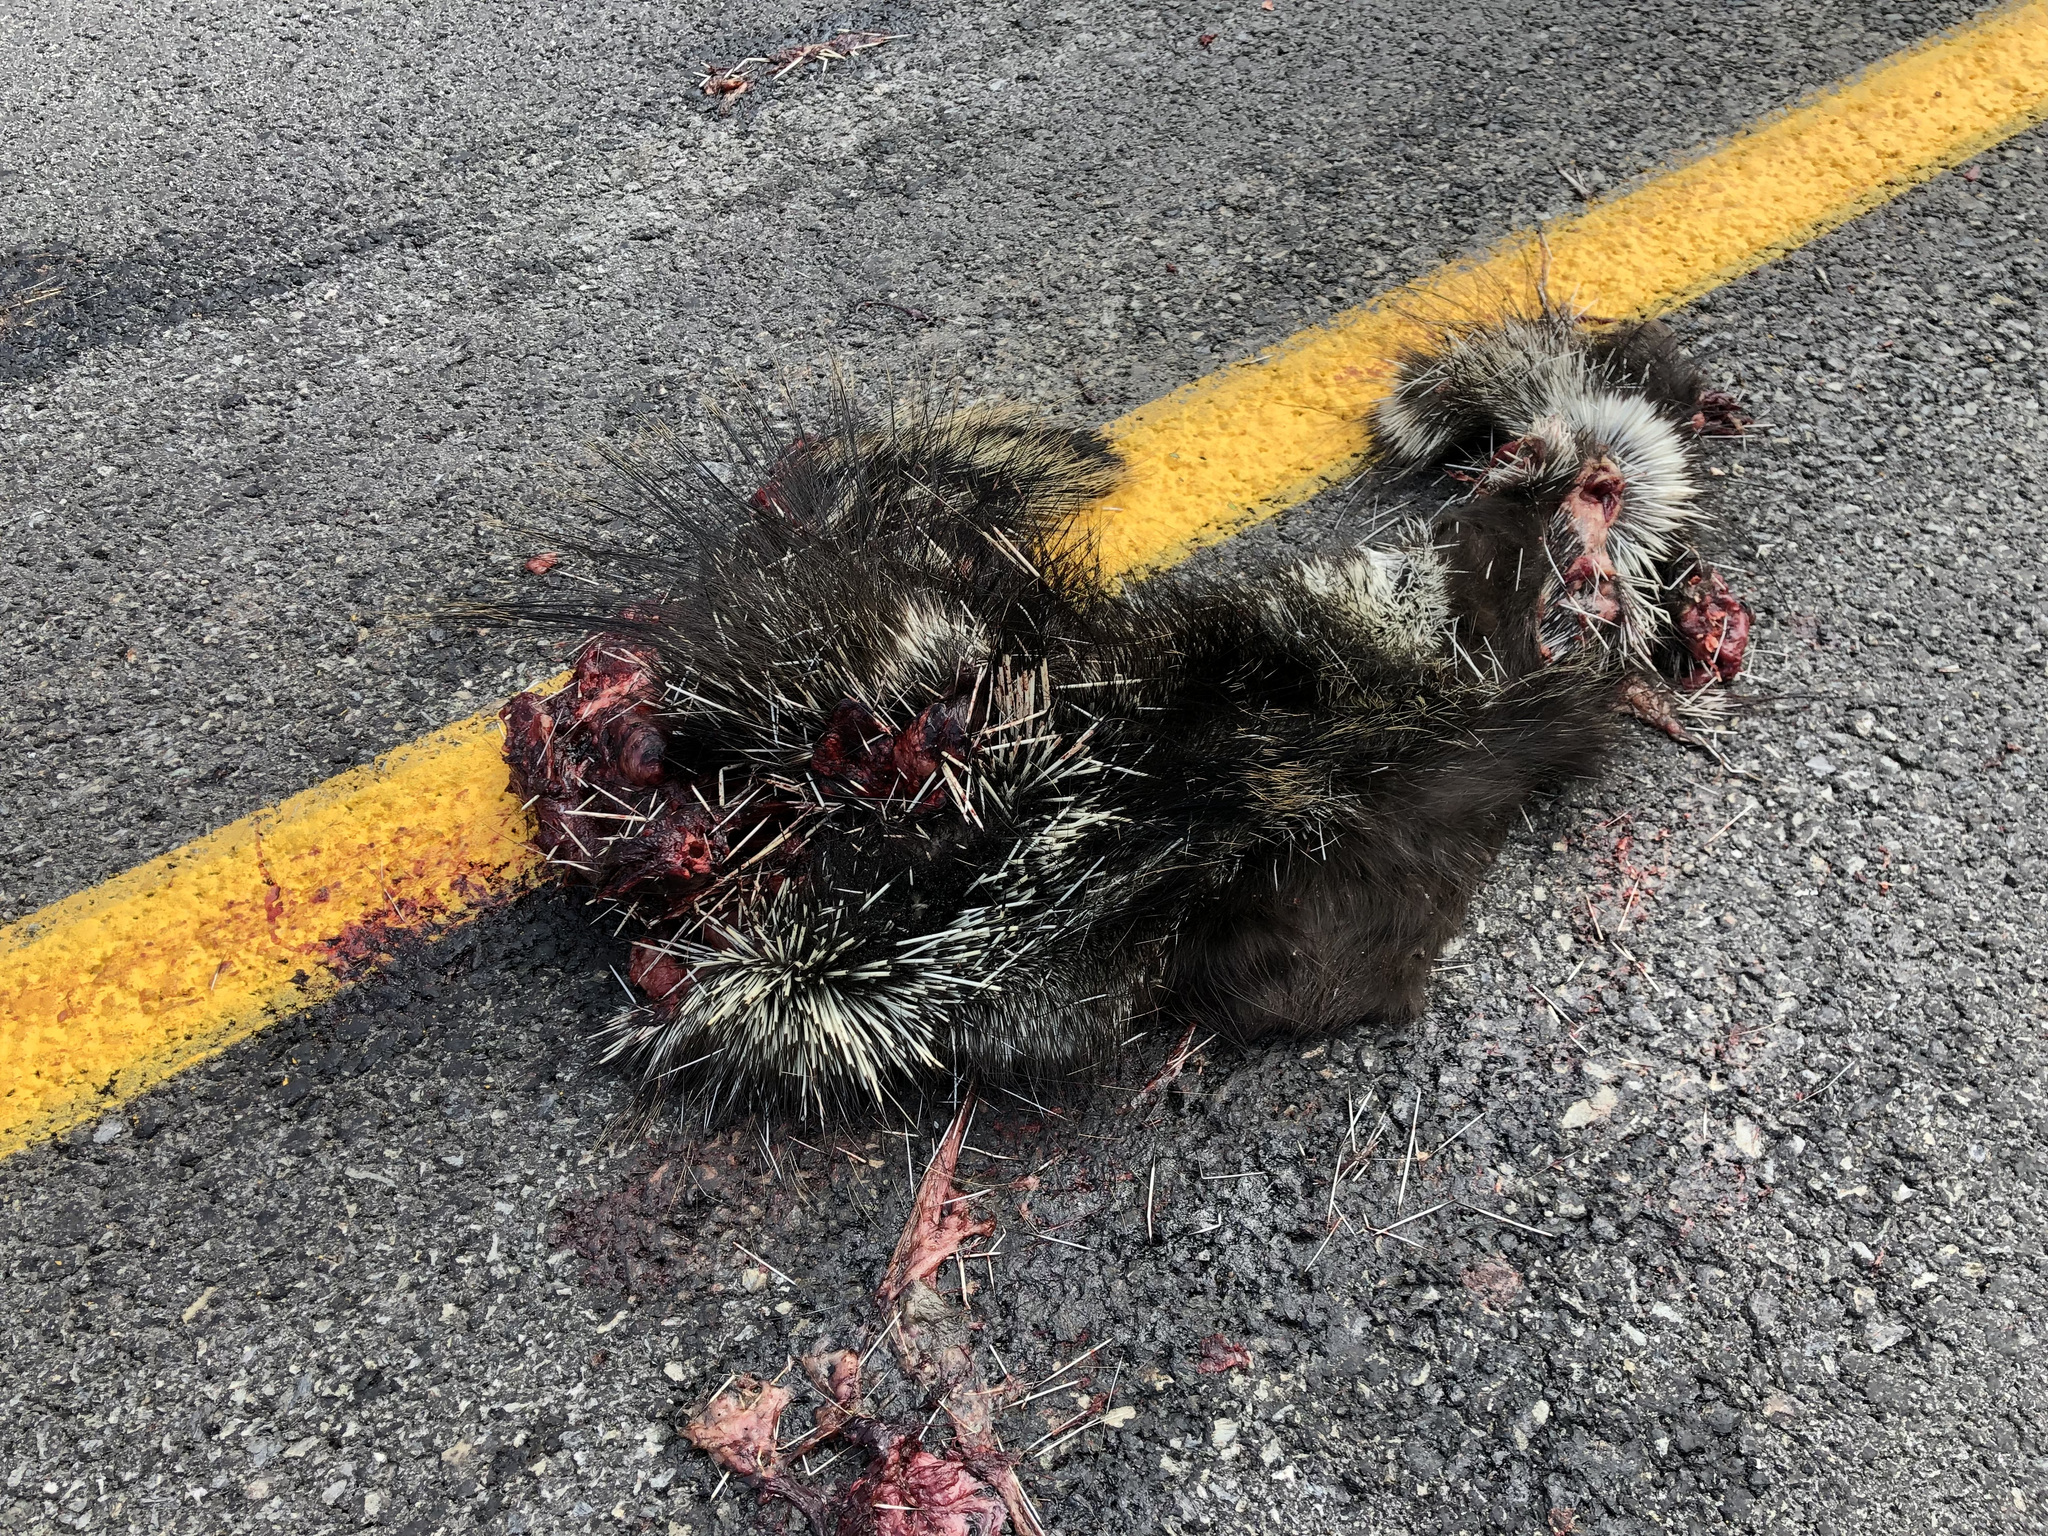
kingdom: Animalia
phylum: Chordata
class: Mammalia
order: Rodentia
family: Erethizontidae
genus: Erethizon
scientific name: Erethizon dorsatus
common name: North american porcupine
